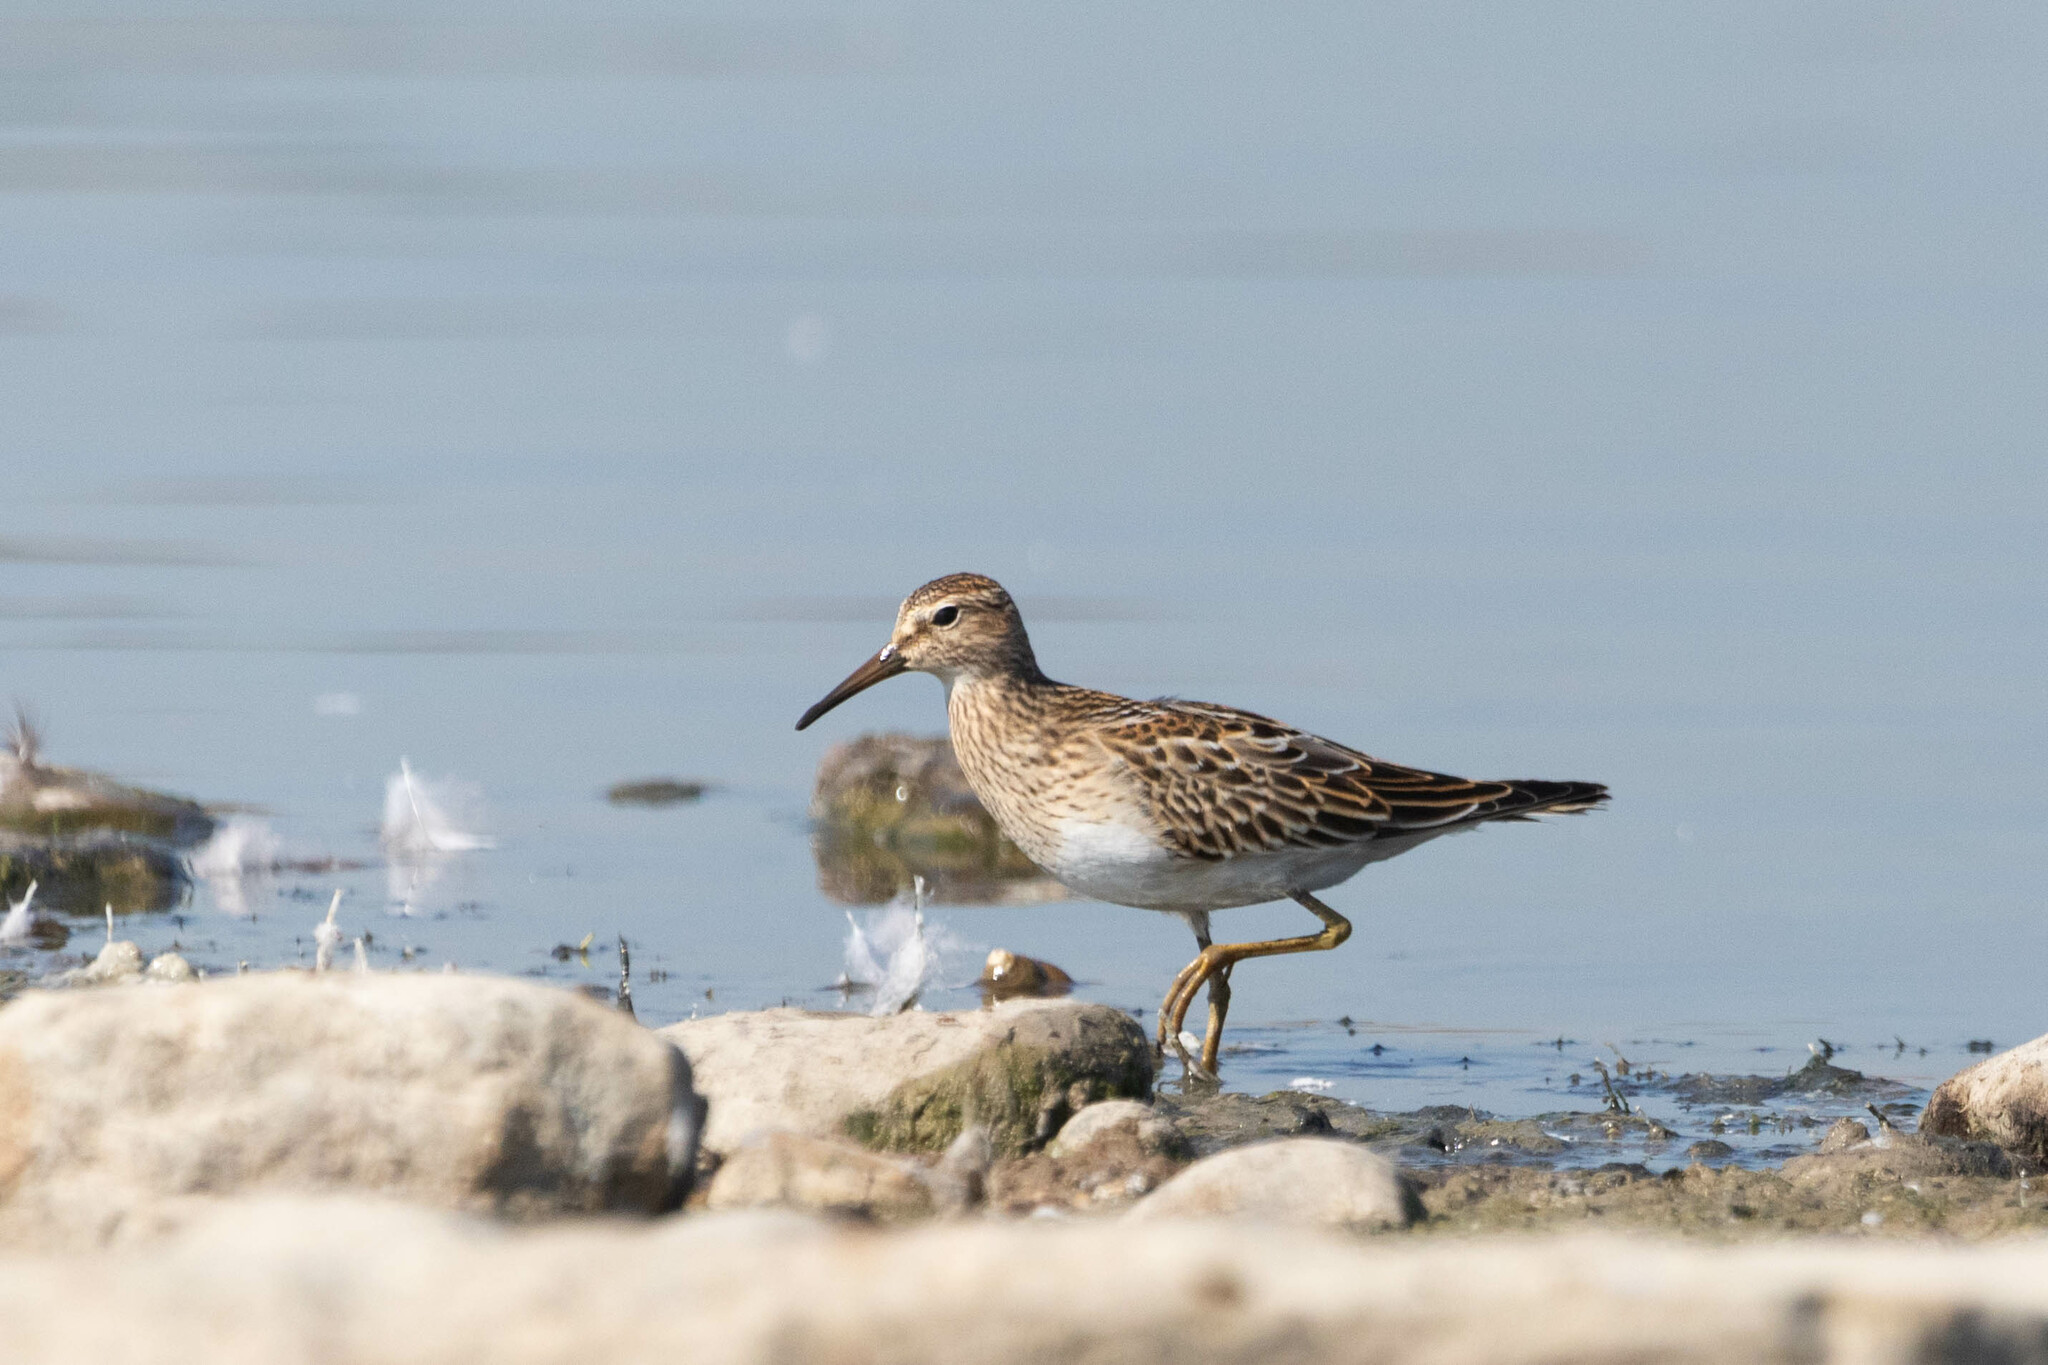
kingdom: Animalia
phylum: Chordata
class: Aves
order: Charadriiformes
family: Scolopacidae
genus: Calidris
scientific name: Calidris melanotos
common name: Pectoral sandpiper
